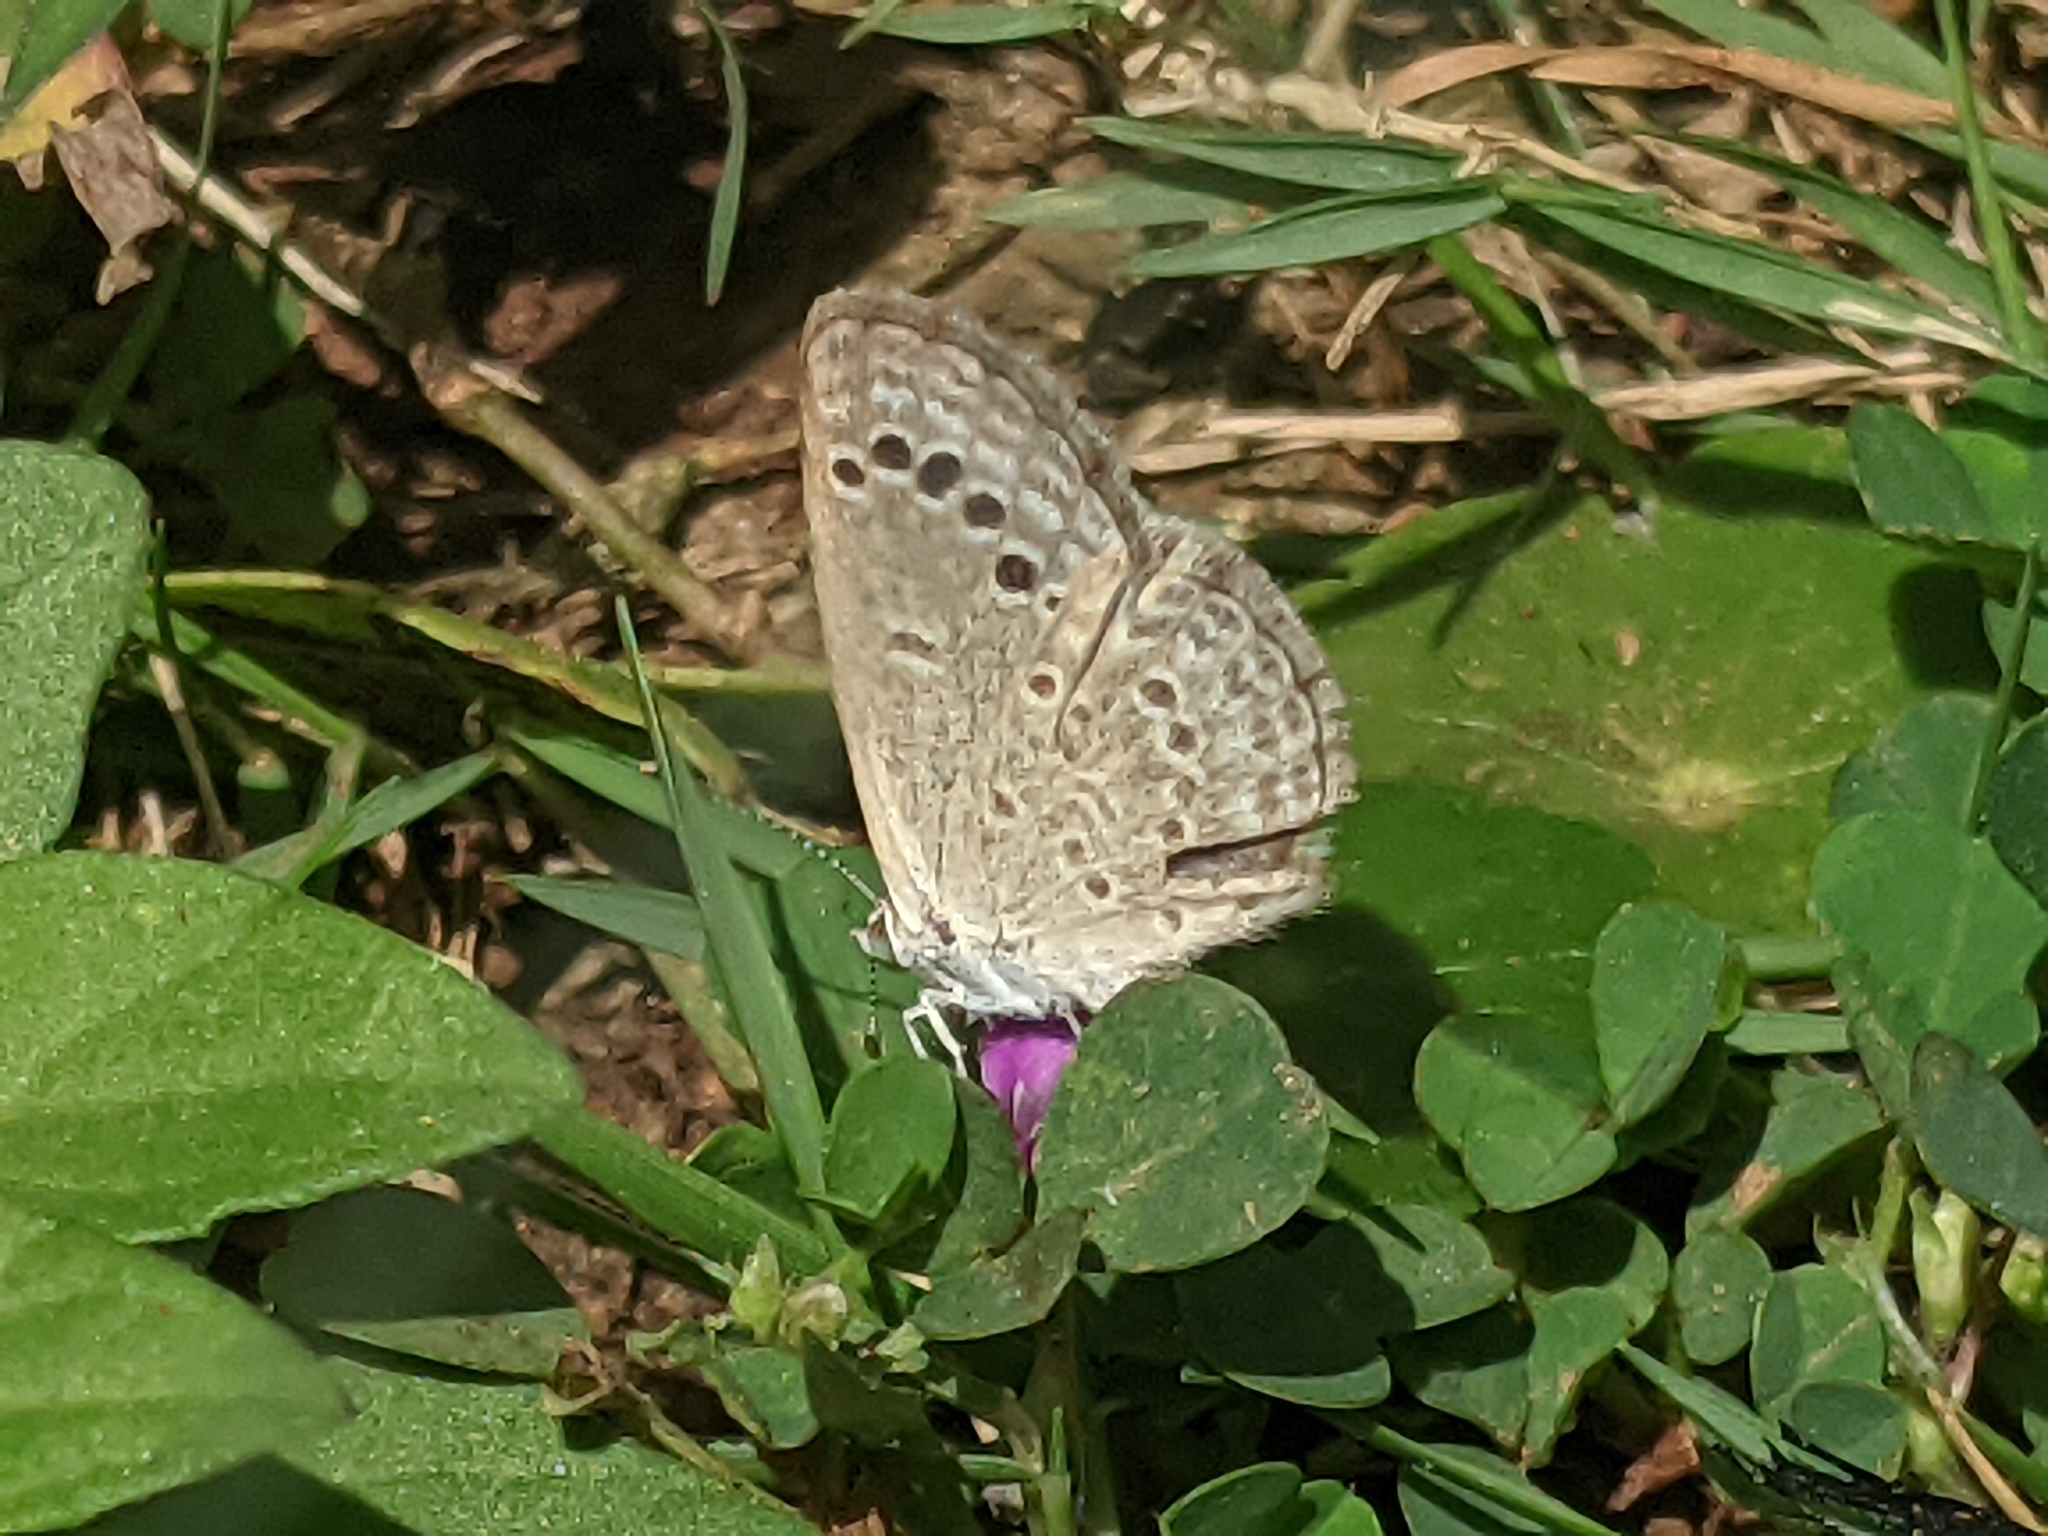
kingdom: Animalia
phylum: Arthropoda
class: Insecta
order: Lepidoptera
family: Lycaenidae
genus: Zizina
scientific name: Zizina otis
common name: Lesser grass blue
